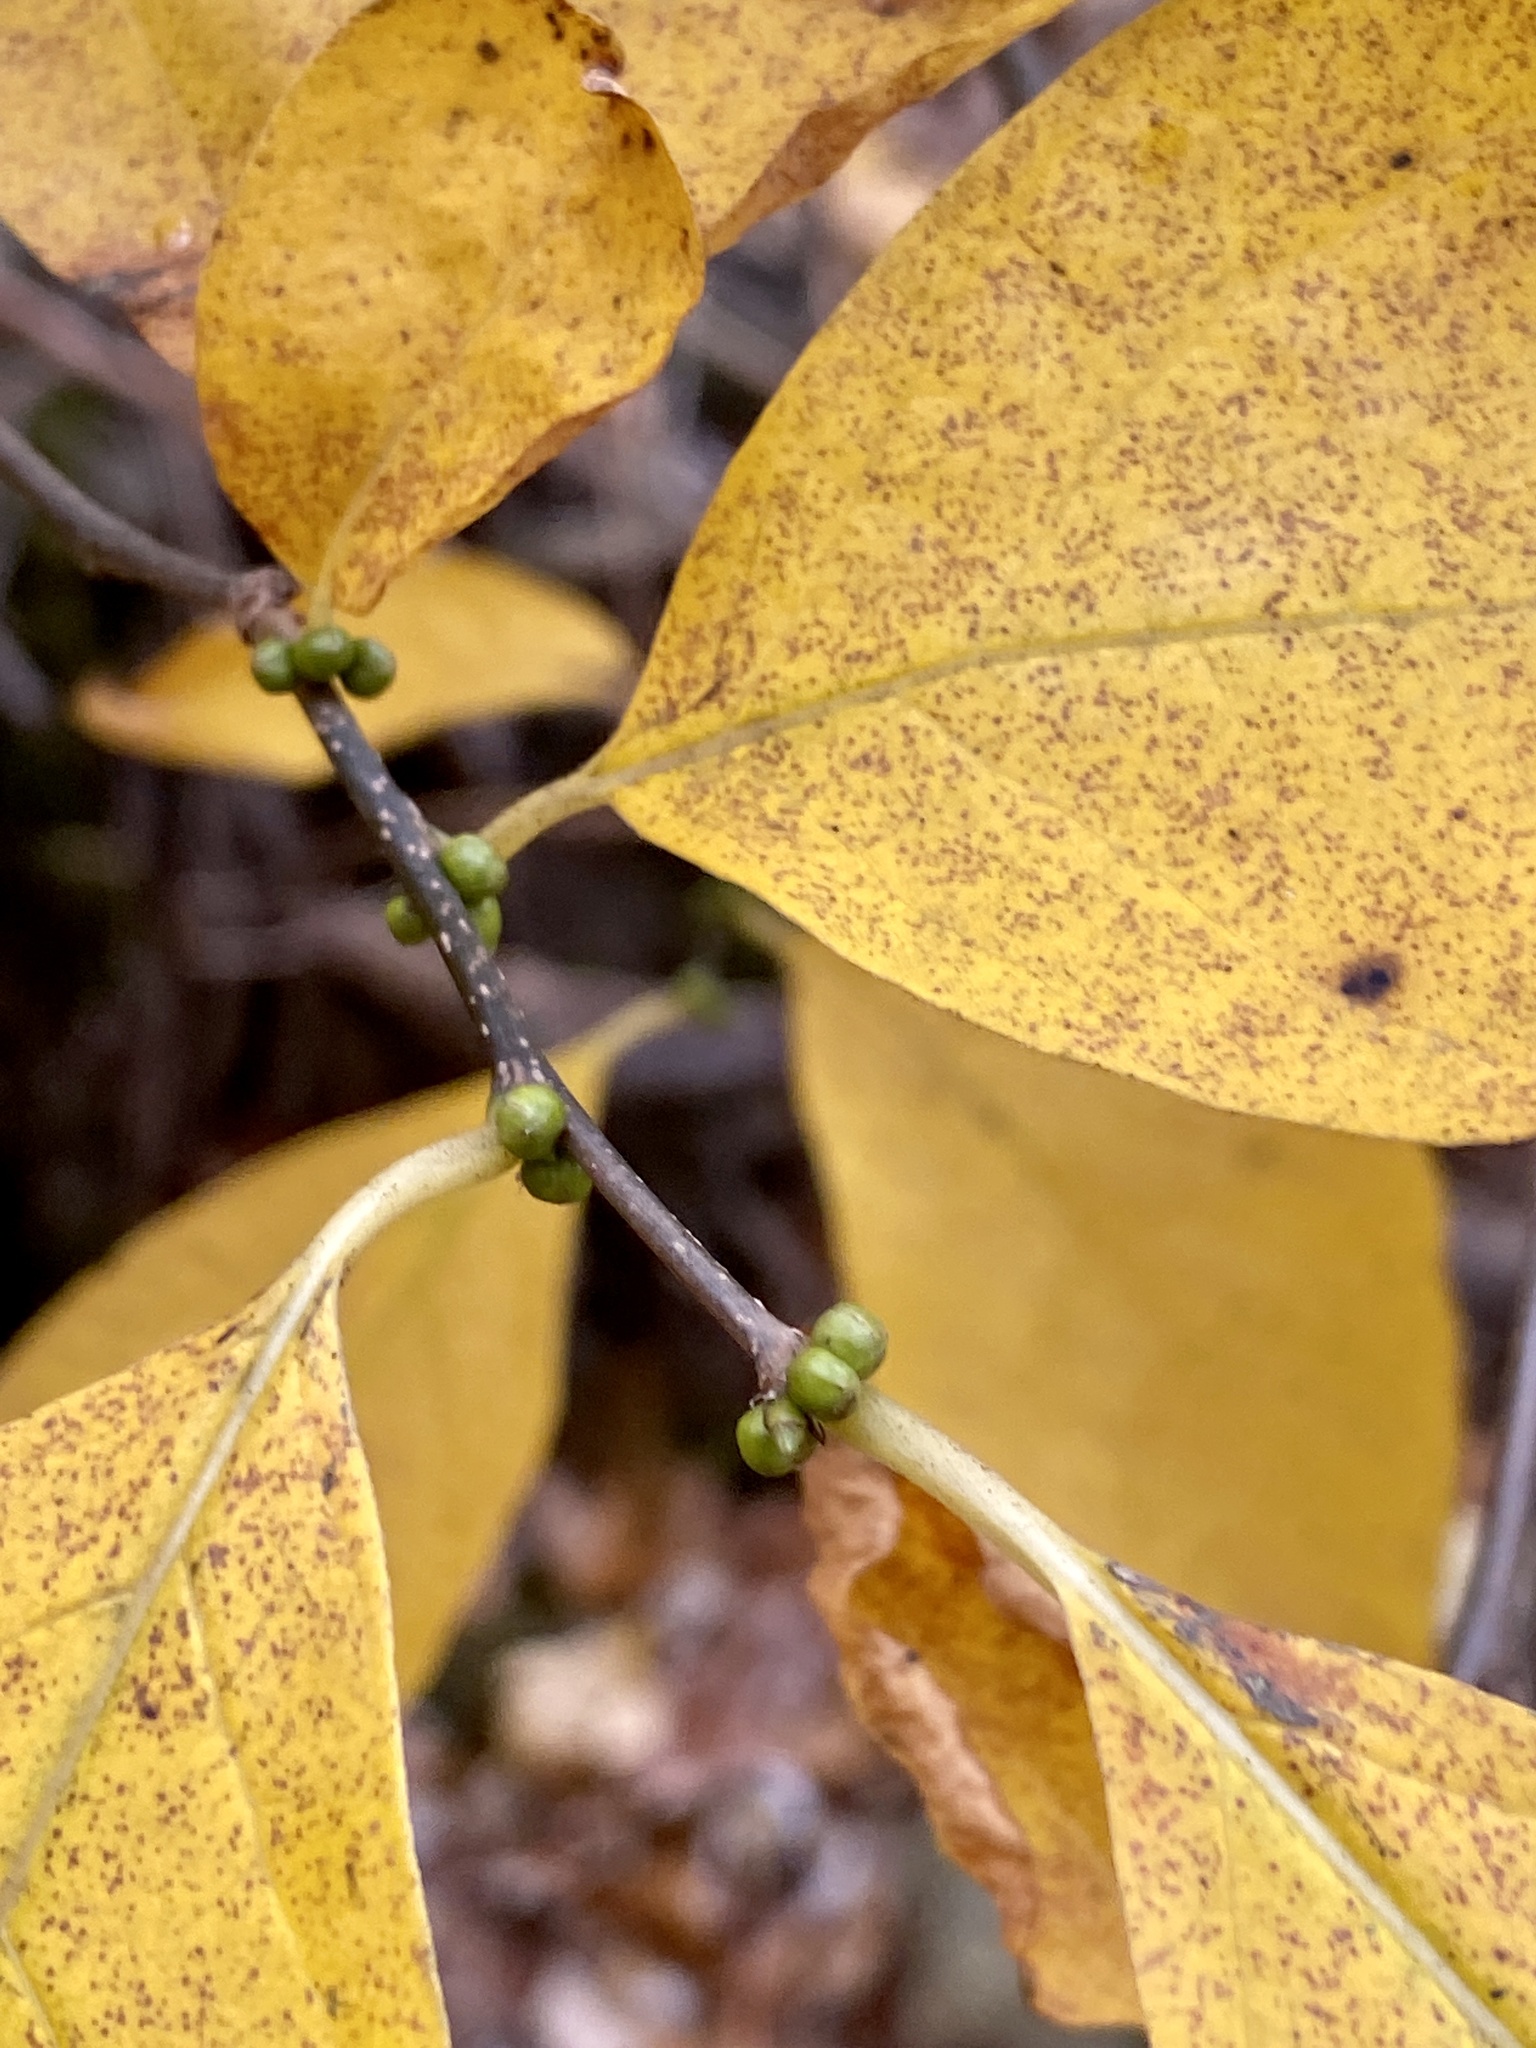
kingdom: Plantae
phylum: Tracheophyta
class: Magnoliopsida
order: Laurales
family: Lauraceae
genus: Lindera
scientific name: Lindera benzoin
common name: Spicebush
